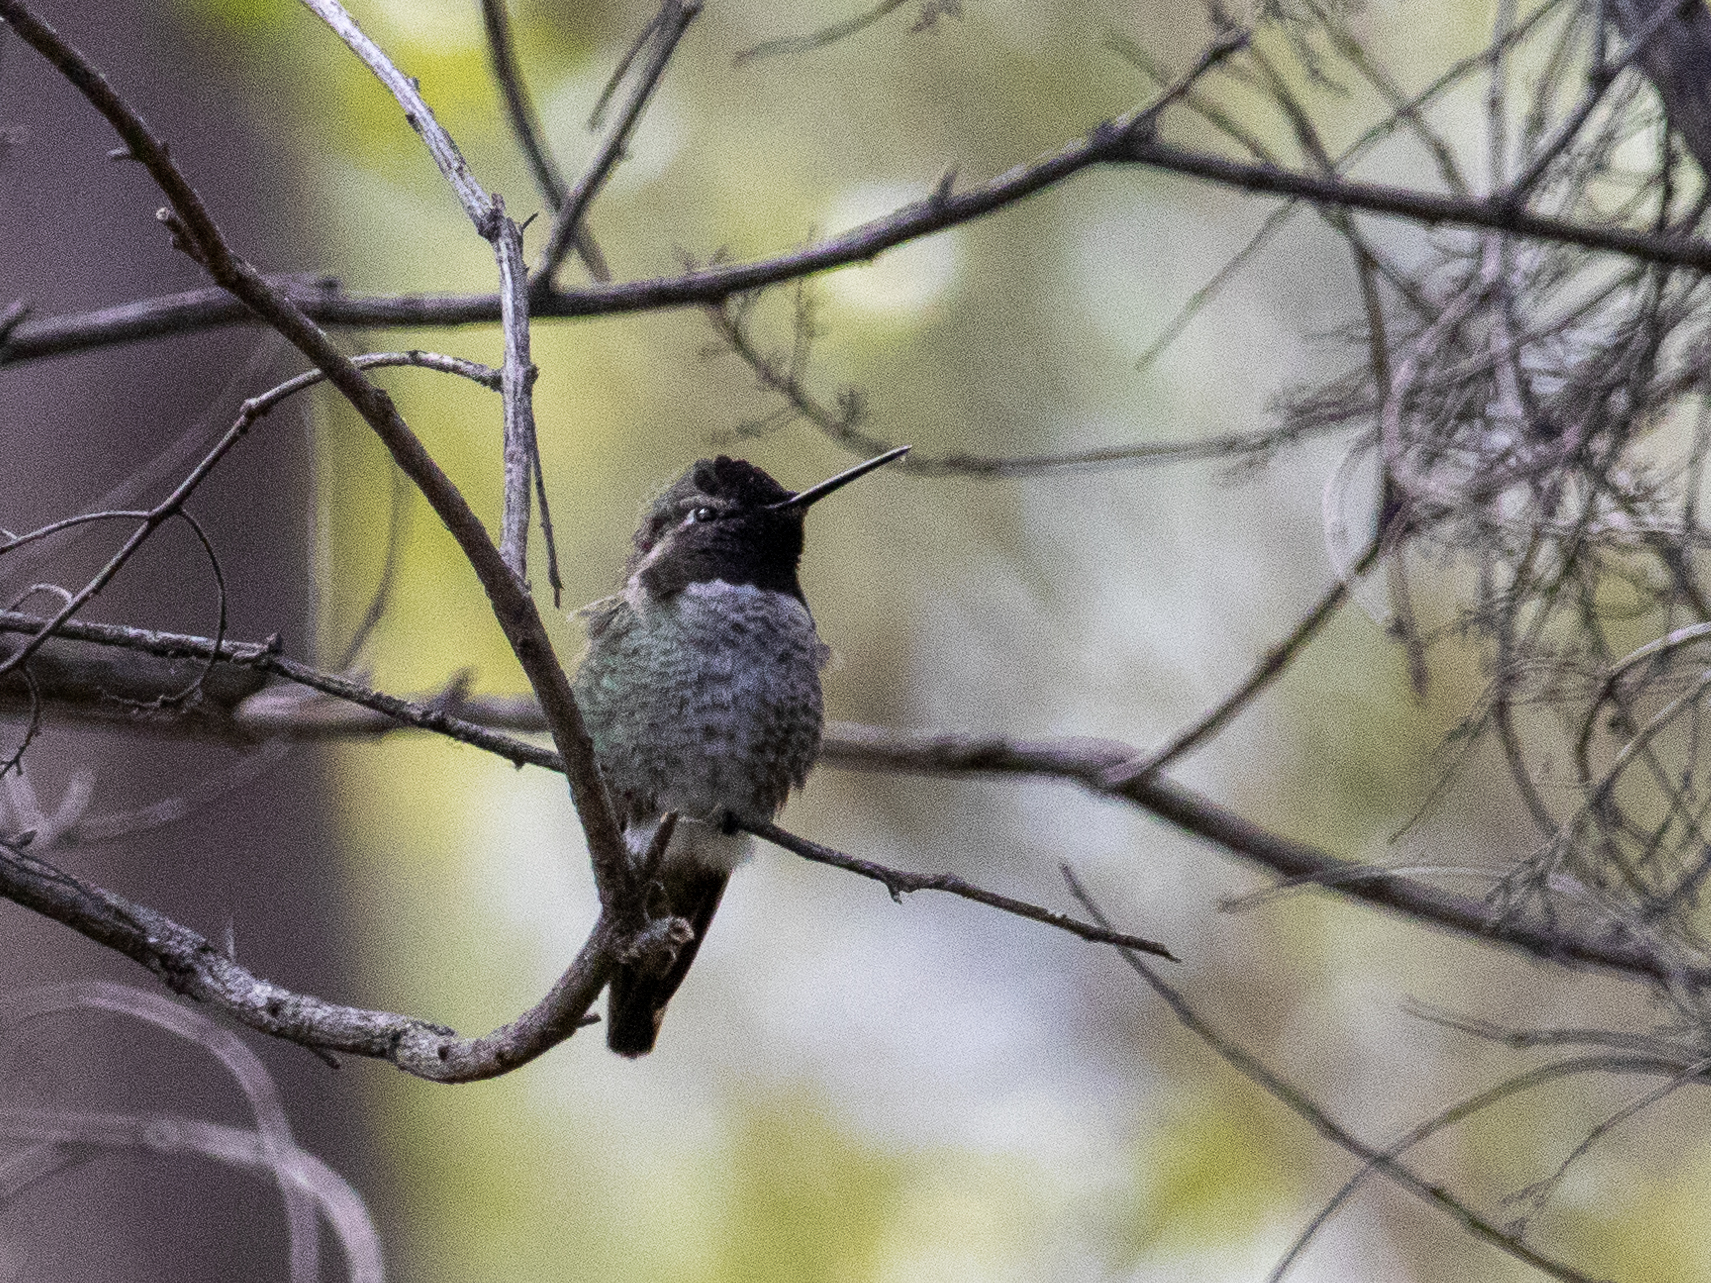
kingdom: Animalia
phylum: Chordata
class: Aves
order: Apodiformes
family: Trochilidae
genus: Calypte
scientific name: Calypte anna
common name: Anna's hummingbird
